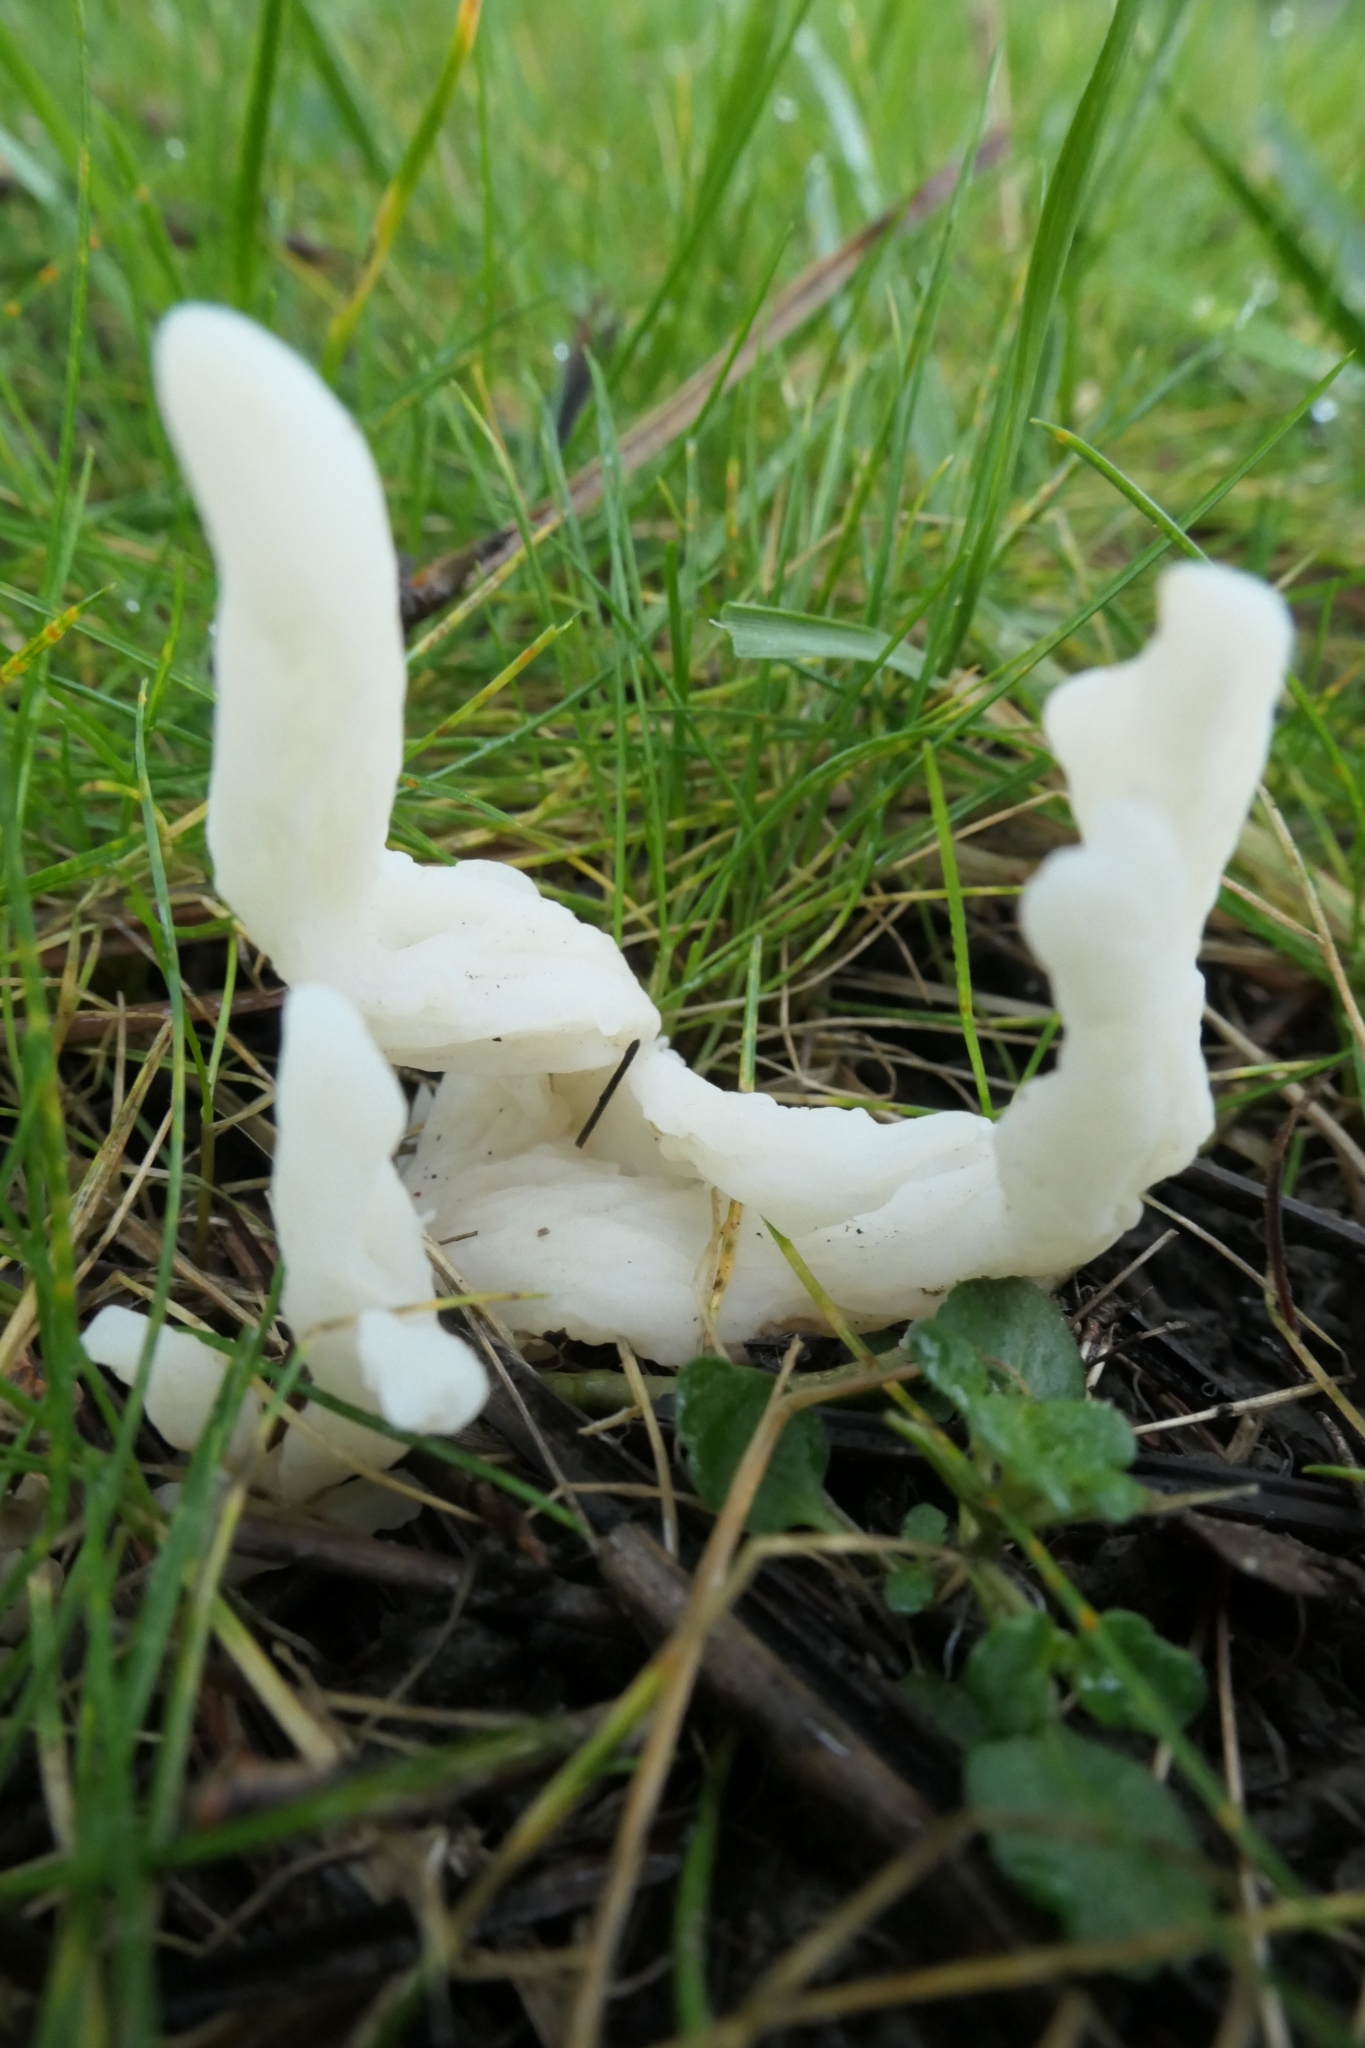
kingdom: Fungi
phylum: Basidiomycota
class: Agaricomycetes
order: Cantharellales
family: Hydnaceae
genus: Clavulina
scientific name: Clavulina rugosa
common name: Wrinkled club
